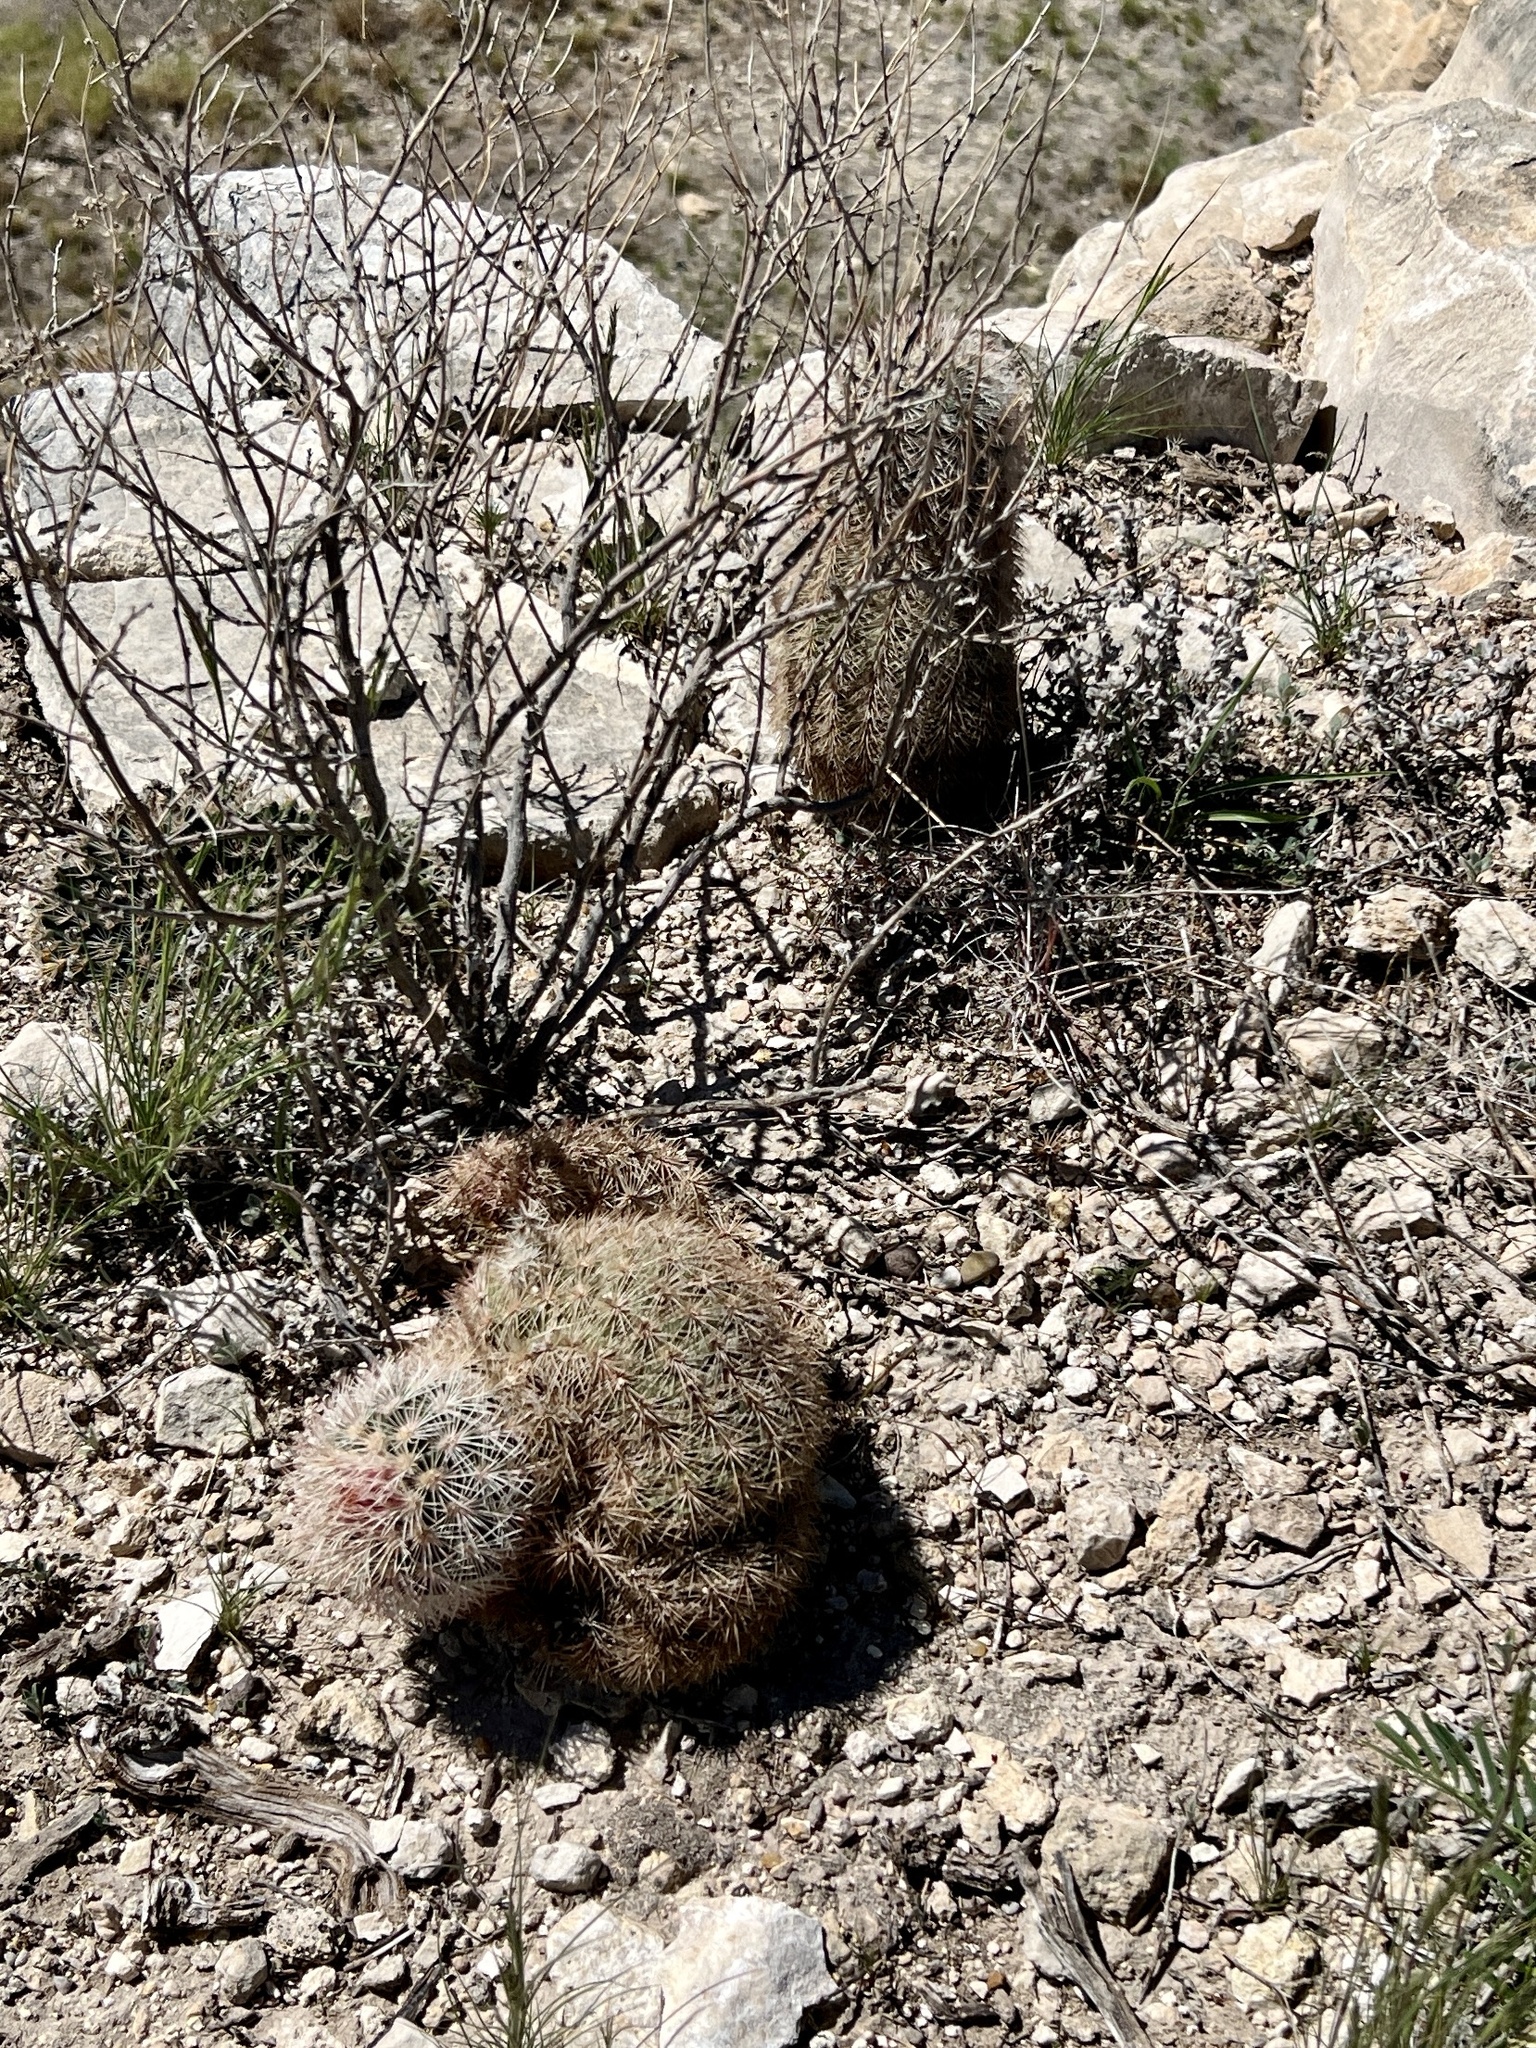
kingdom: Plantae
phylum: Tracheophyta
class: Magnoliopsida
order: Caryophyllales
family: Cactaceae
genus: Echinocereus
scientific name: Echinocereus dasyacanthus
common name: Spiny hedgehog cactus
